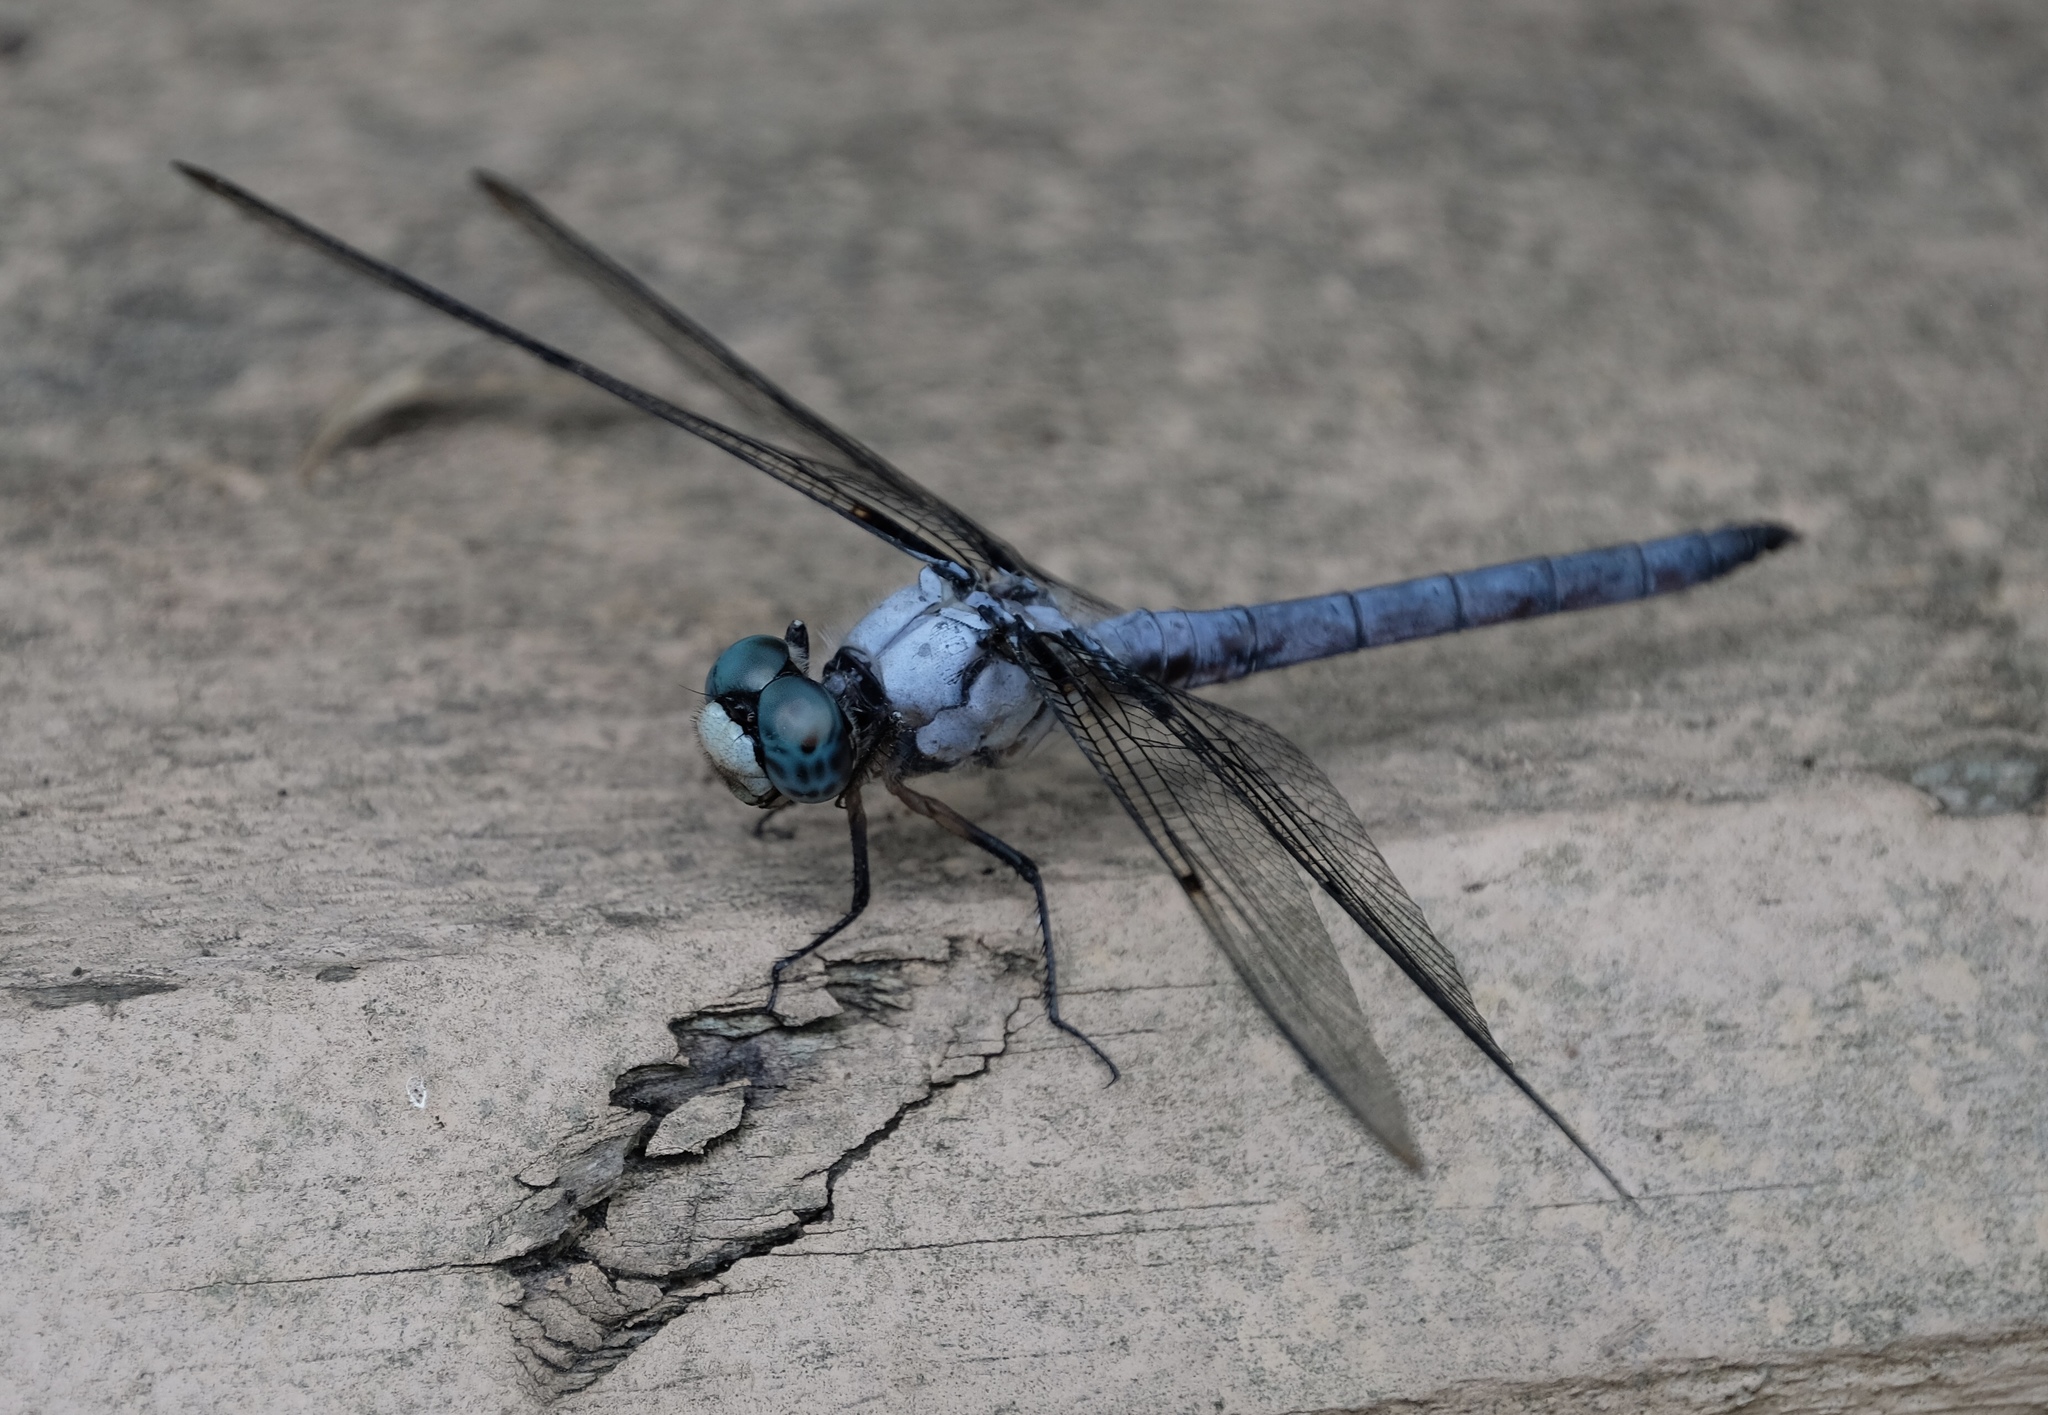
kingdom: Animalia
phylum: Arthropoda
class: Insecta
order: Odonata
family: Libellulidae
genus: Libellula
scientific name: Libellula vibrans
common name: Great blue skimmer
